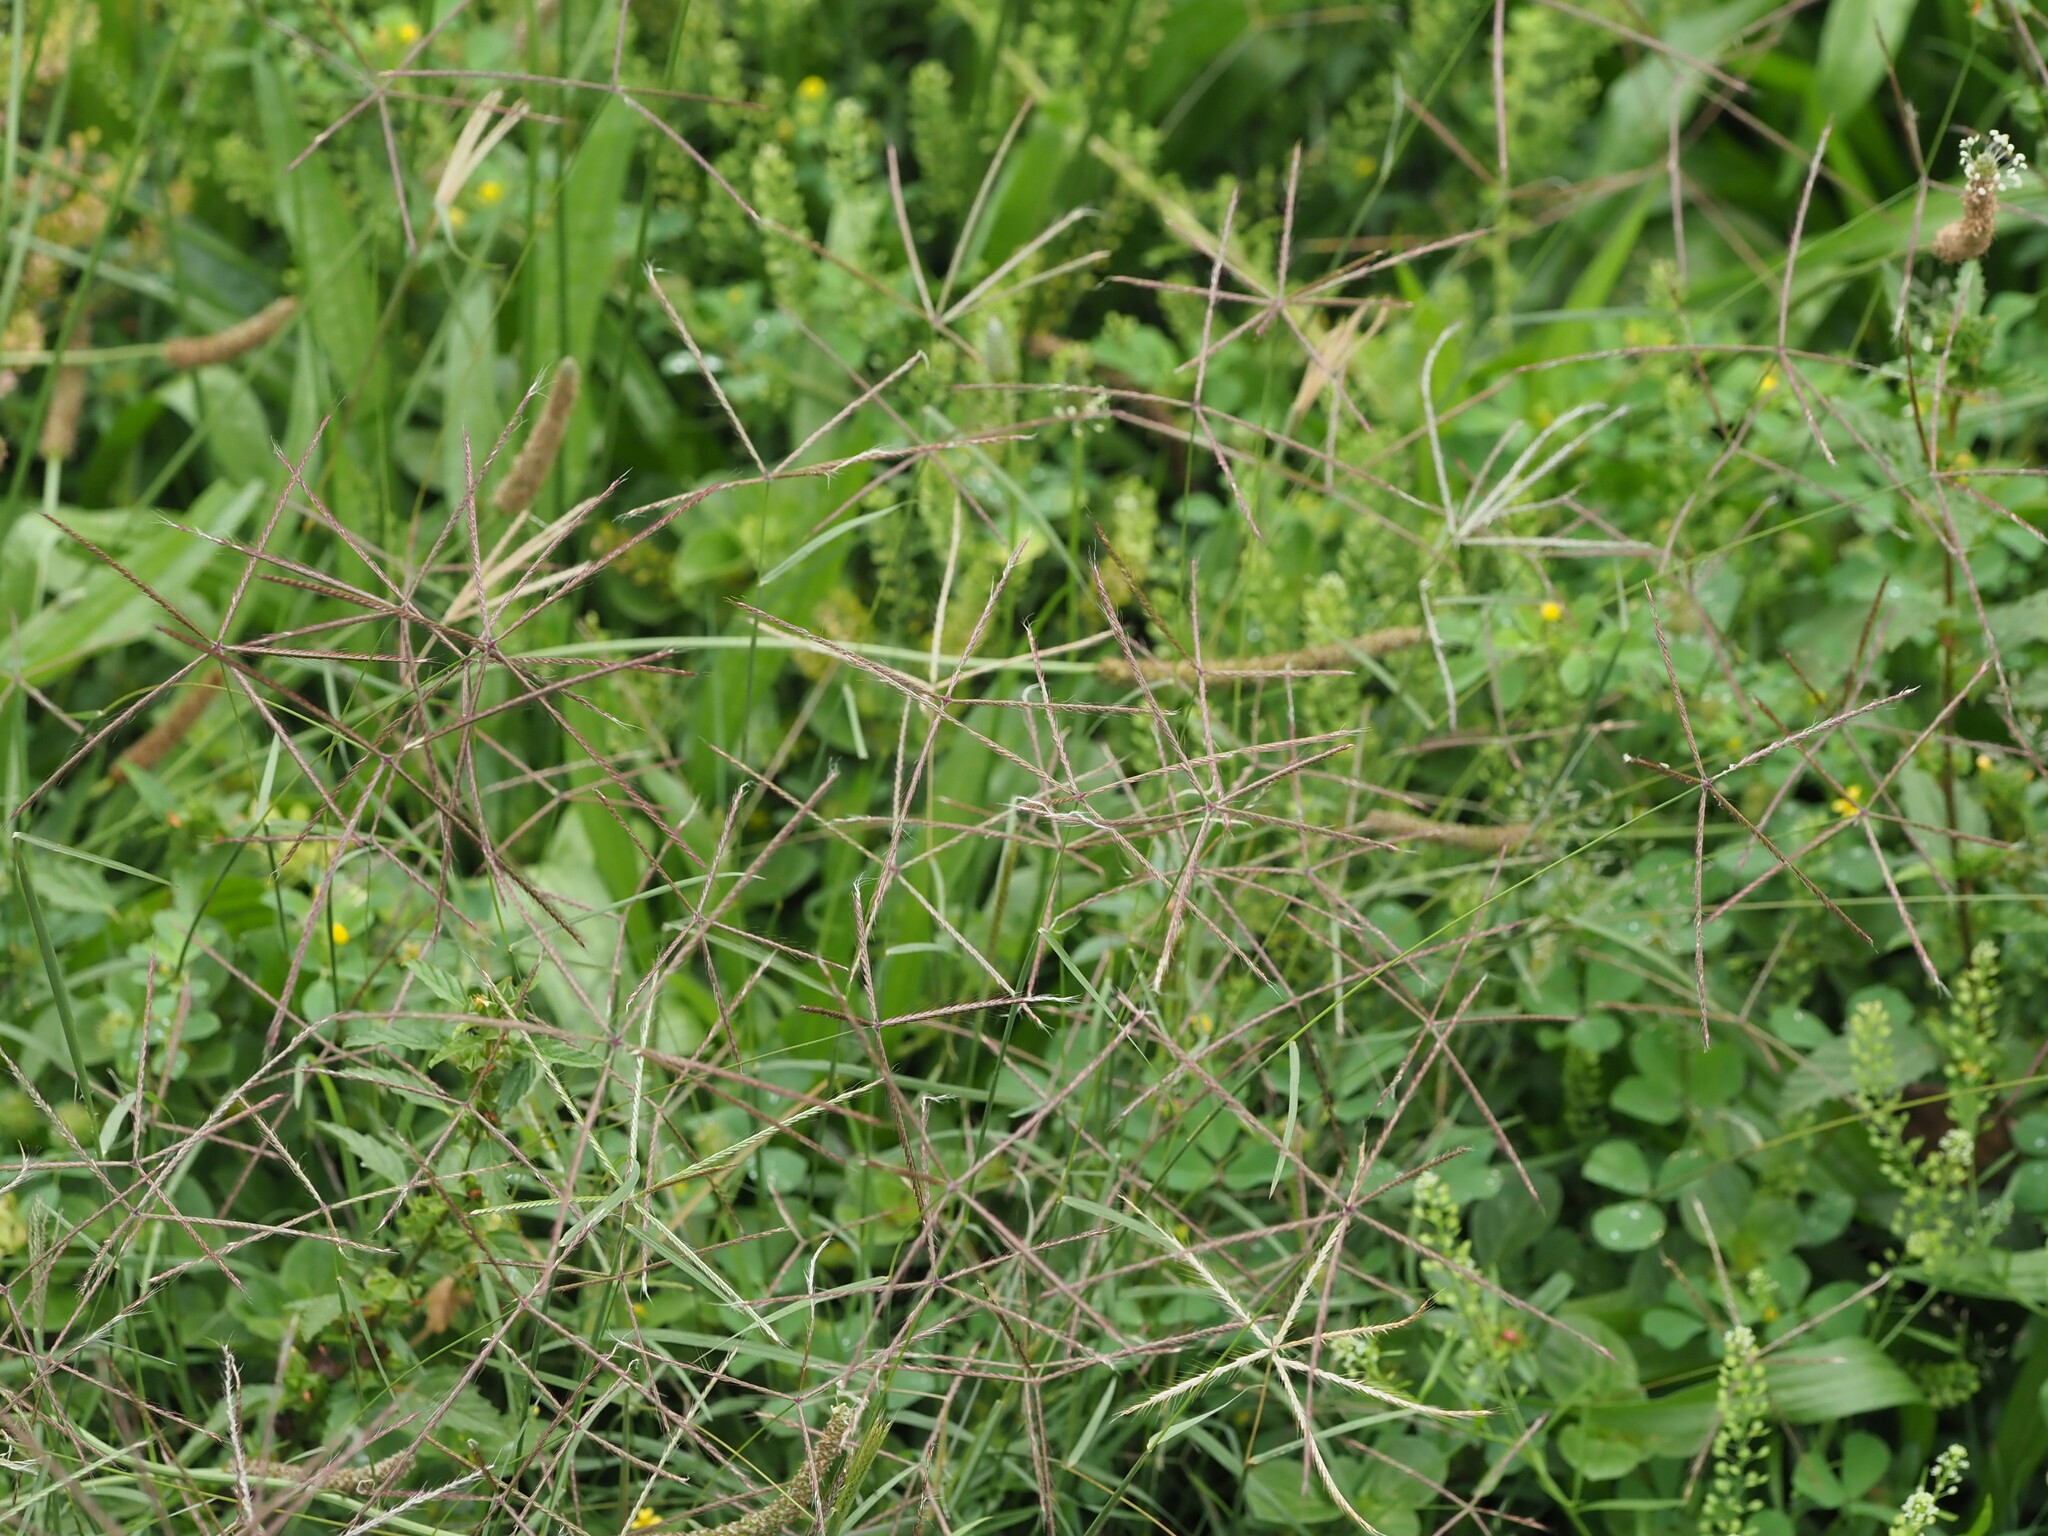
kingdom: Plantae
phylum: Tracheophyta
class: Liliopsida
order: Poales
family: Poaceae
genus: Chloris
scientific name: Chloris
